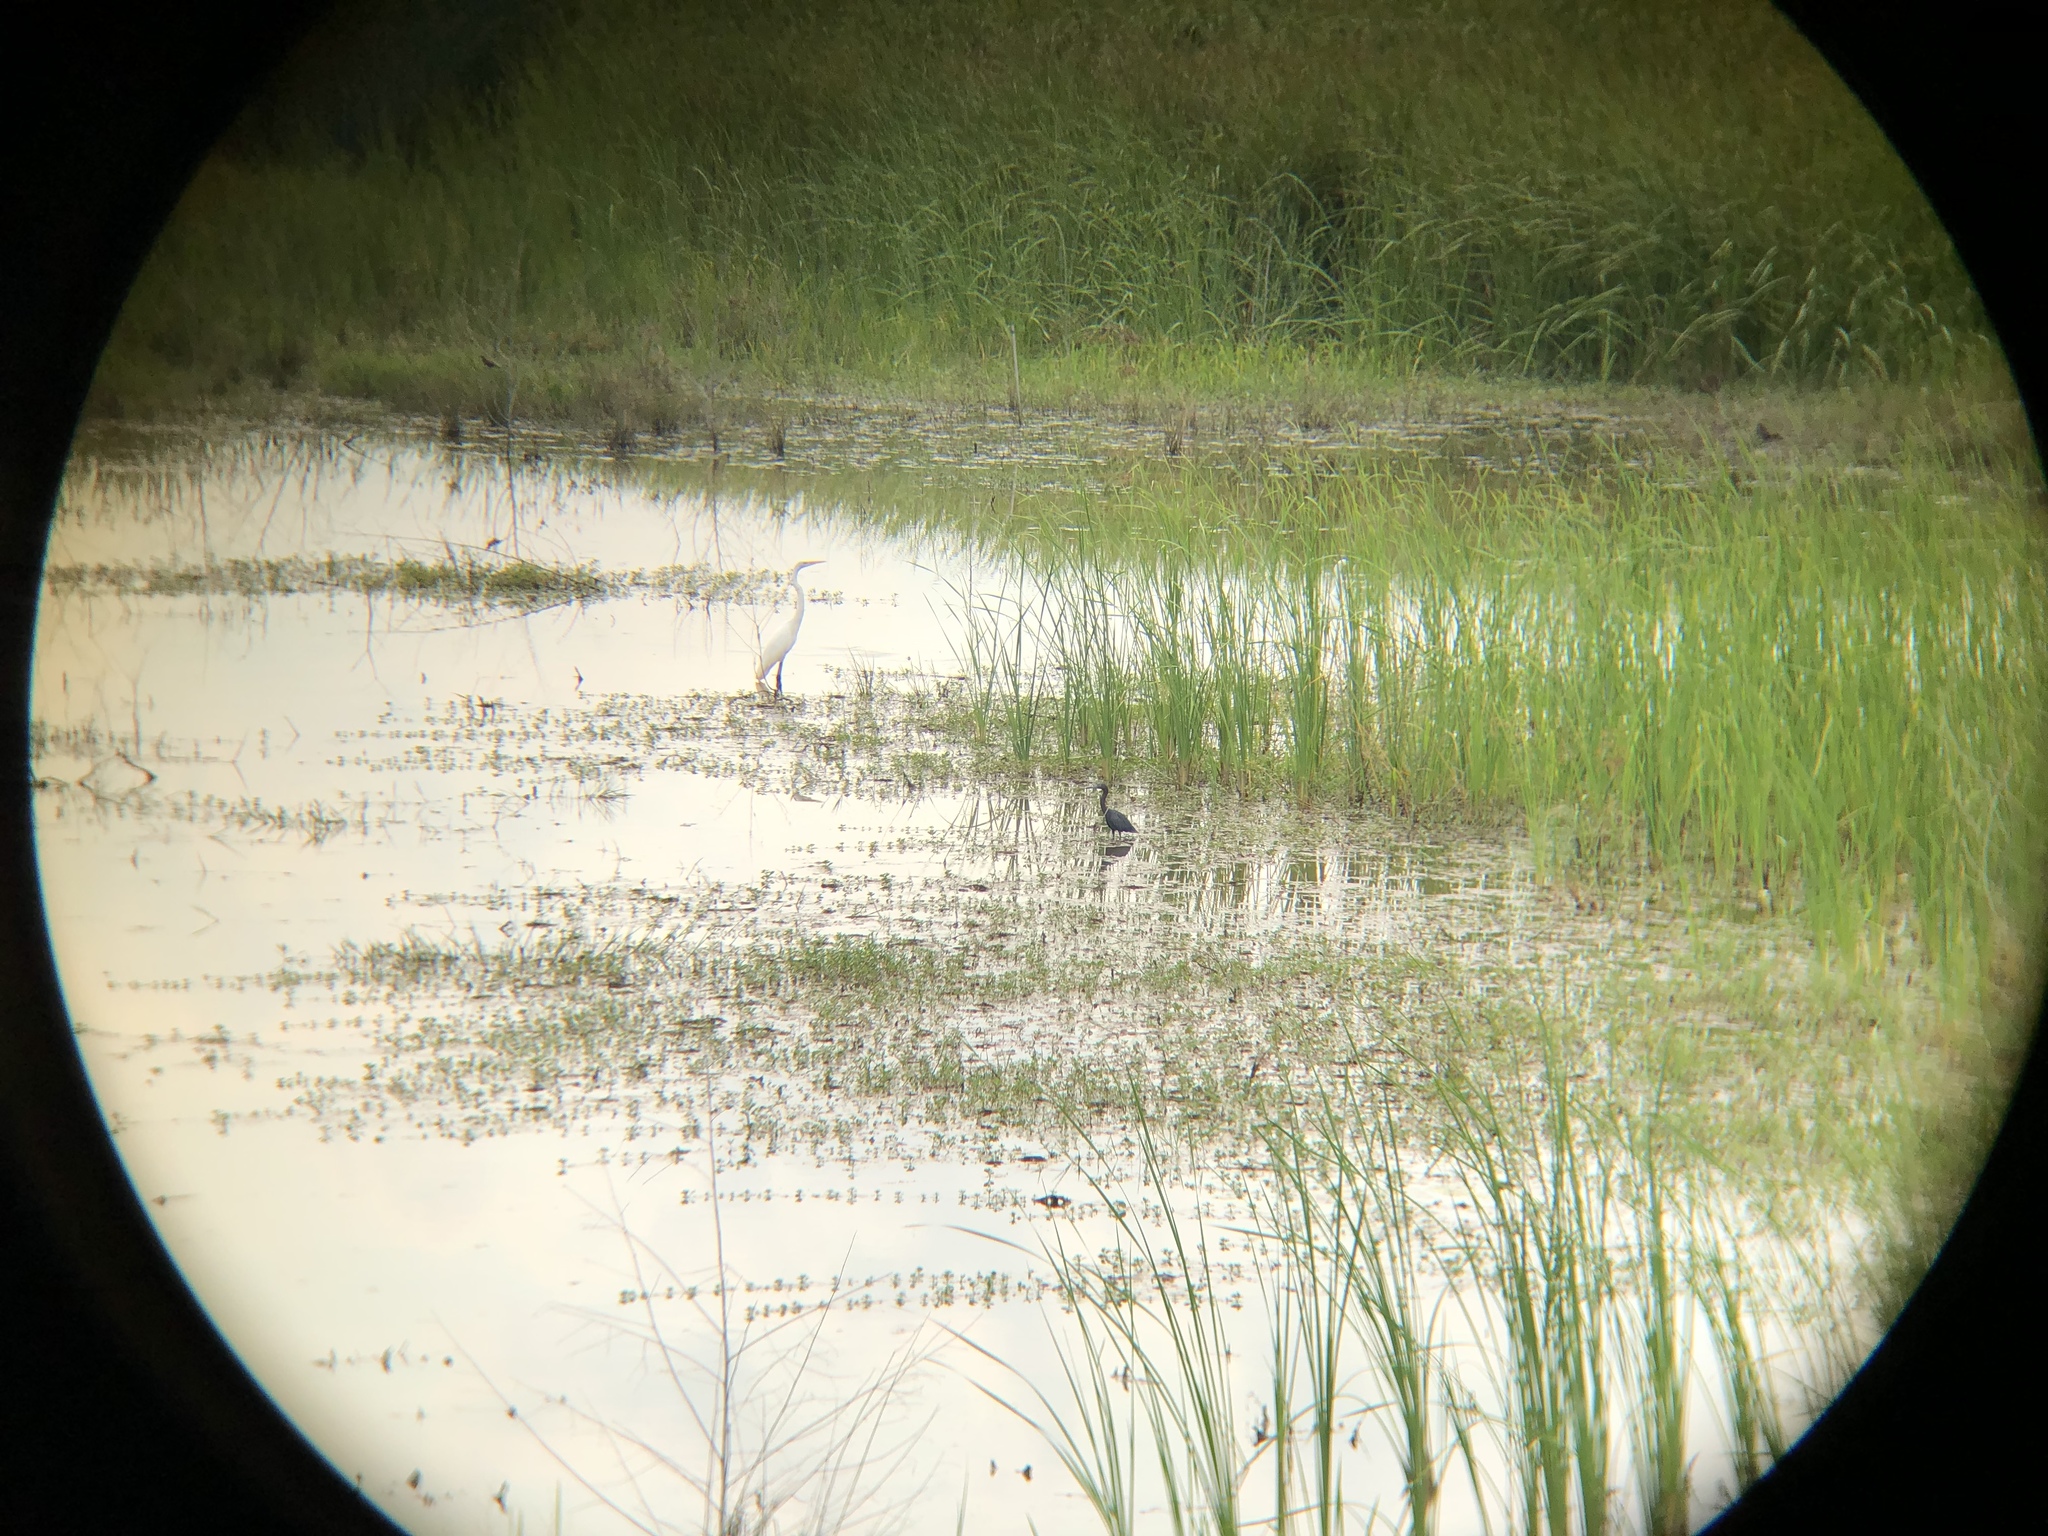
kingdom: Animalia
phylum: Chordata
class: Aves
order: Pelecaniformes
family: Ardeidae
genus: Ardea
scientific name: Ardea alba
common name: Great egret
